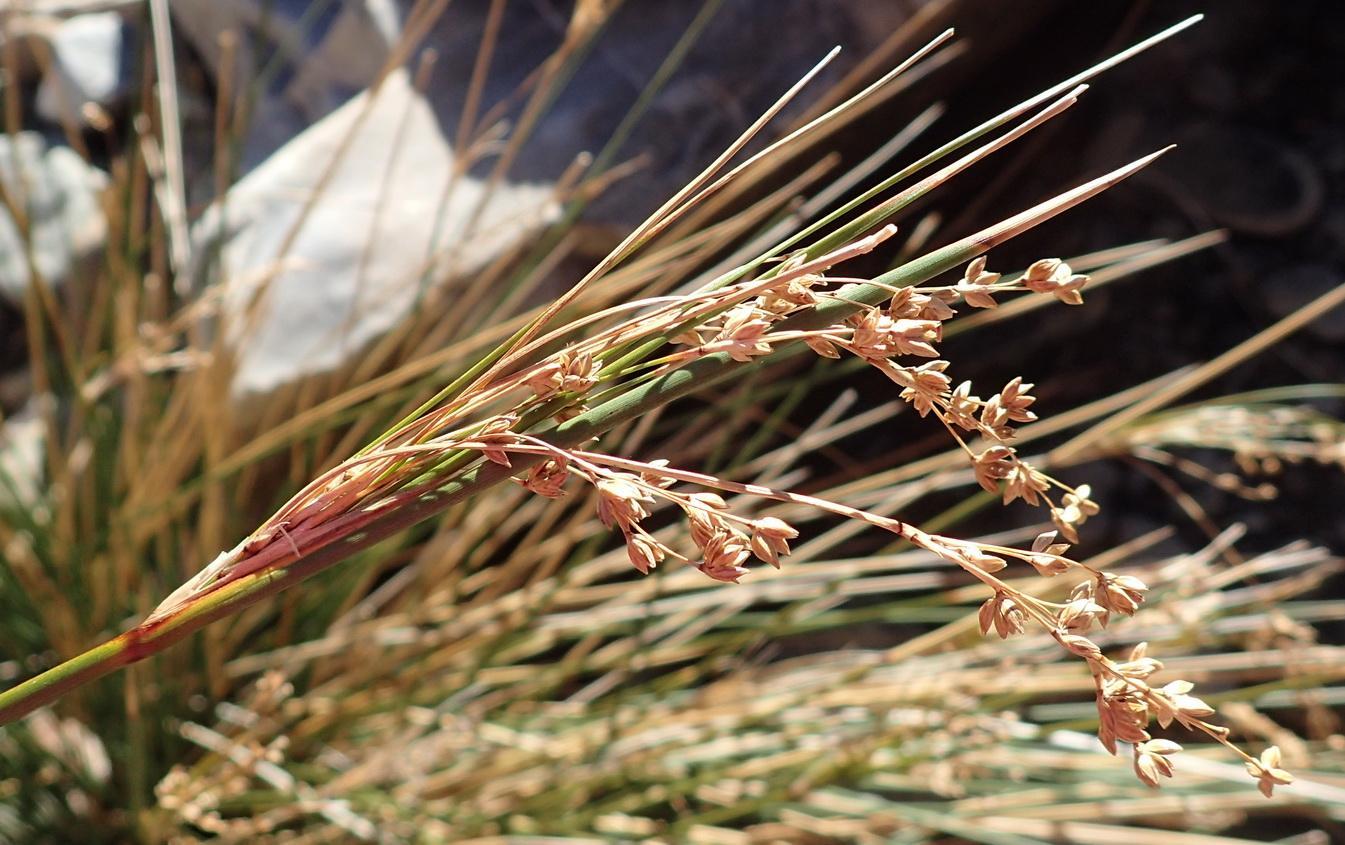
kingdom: Plantae
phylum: Tracheophyta
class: Liliopsida
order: Poales
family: Juncaceae
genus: Juncus
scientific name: Juncus rigidus
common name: Hard sea rush
